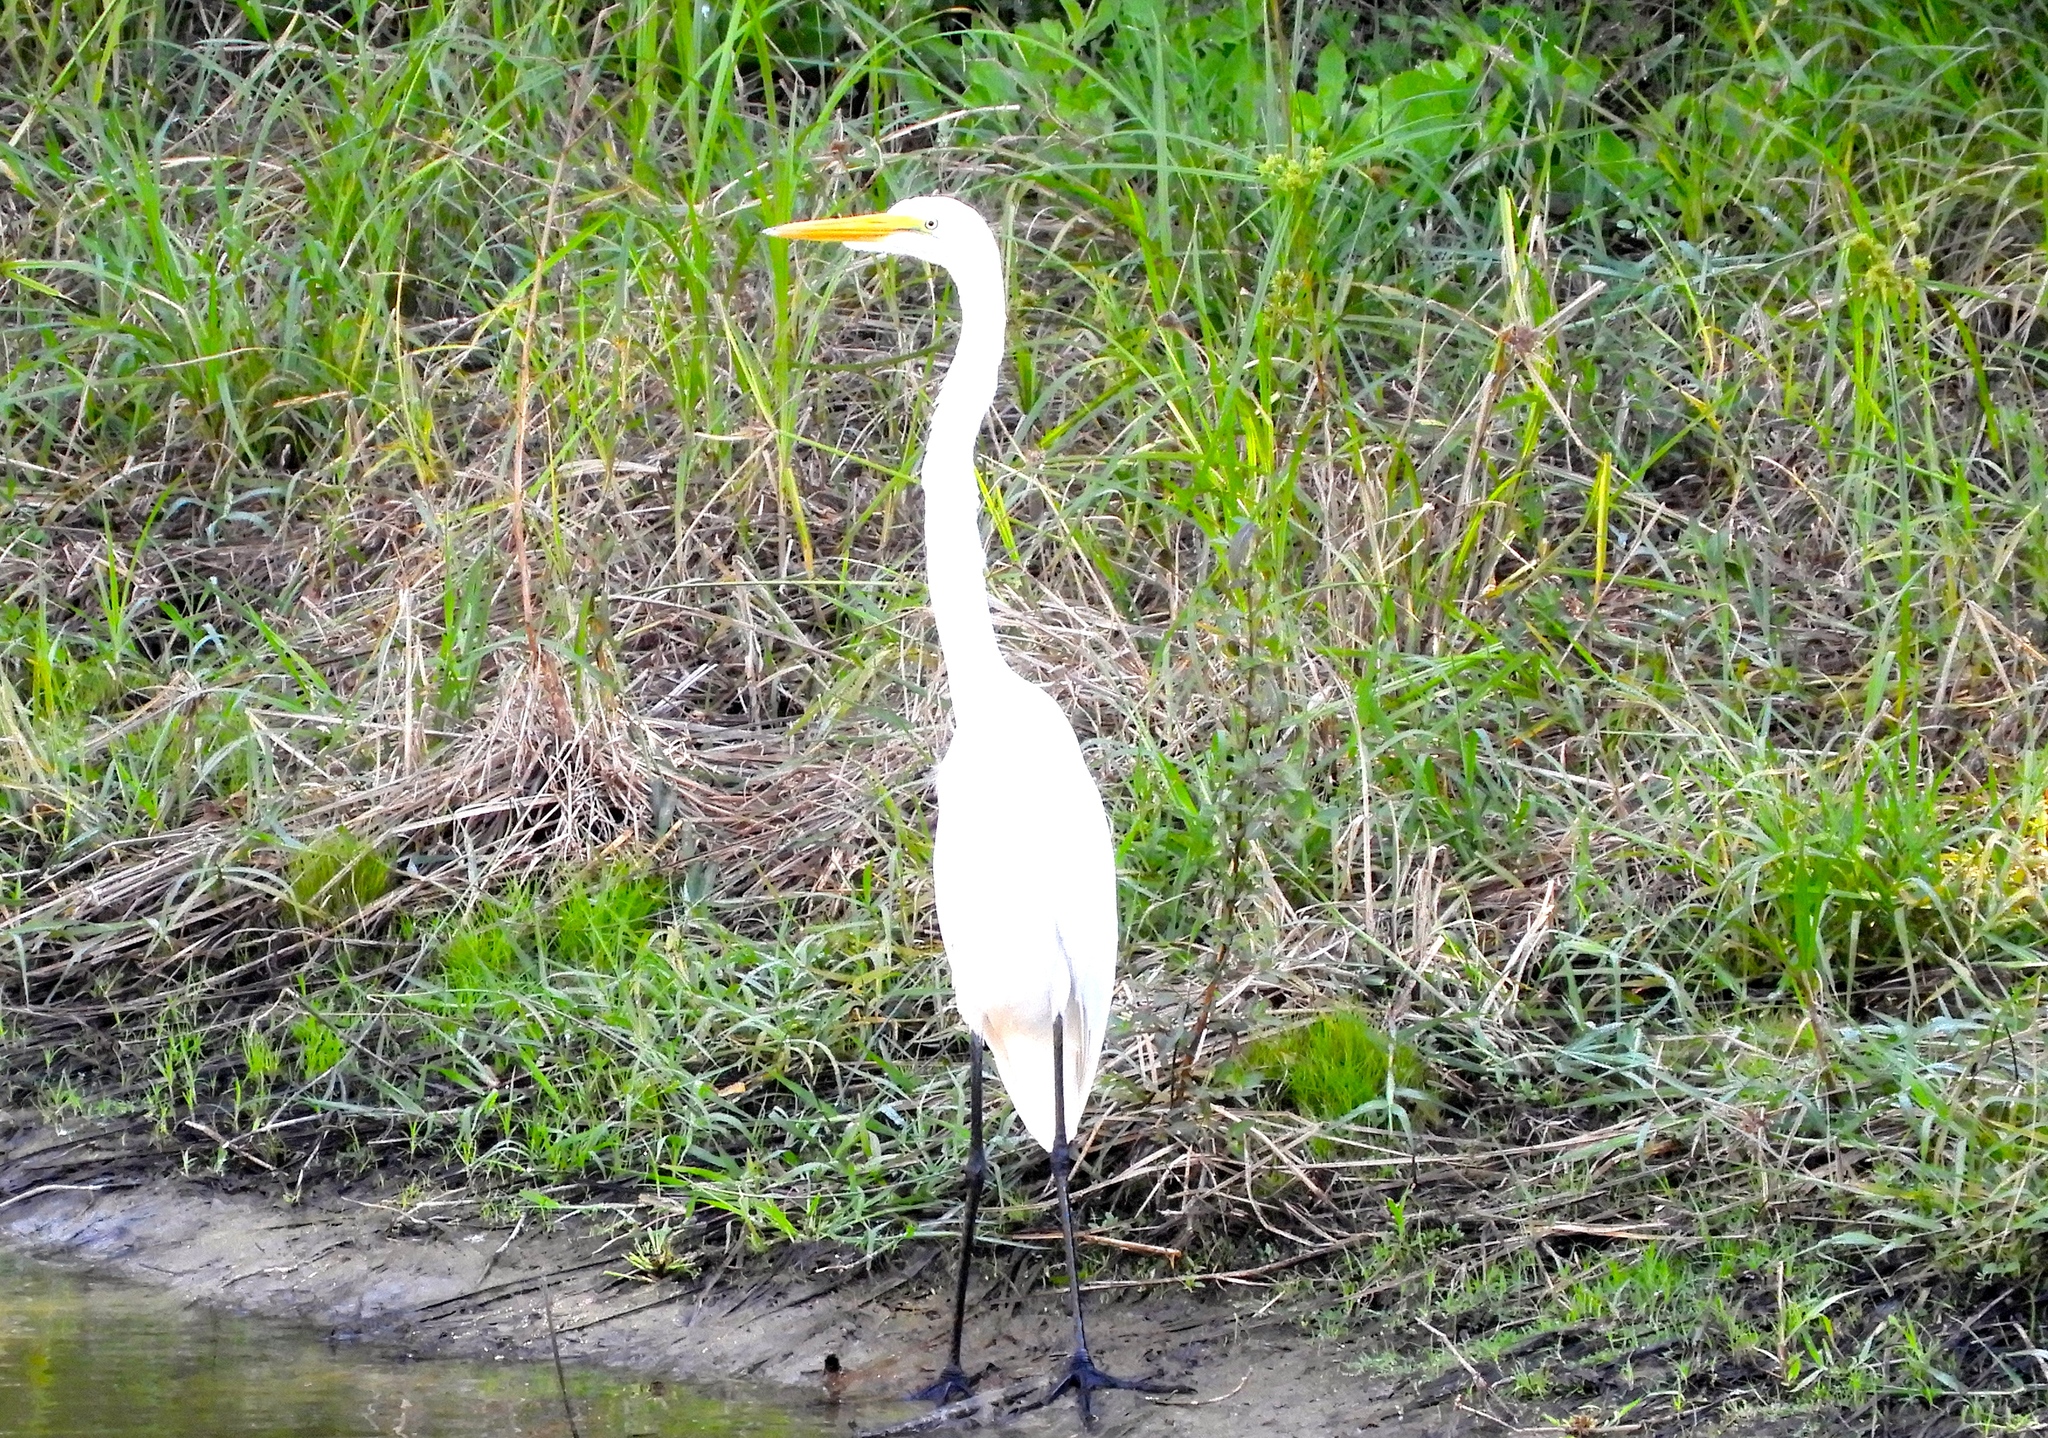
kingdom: Animalia
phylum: Chordata
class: Aves
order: Pelecaniformes
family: Ardeidae
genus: Ardea
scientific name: Ardea alba
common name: Great egret
